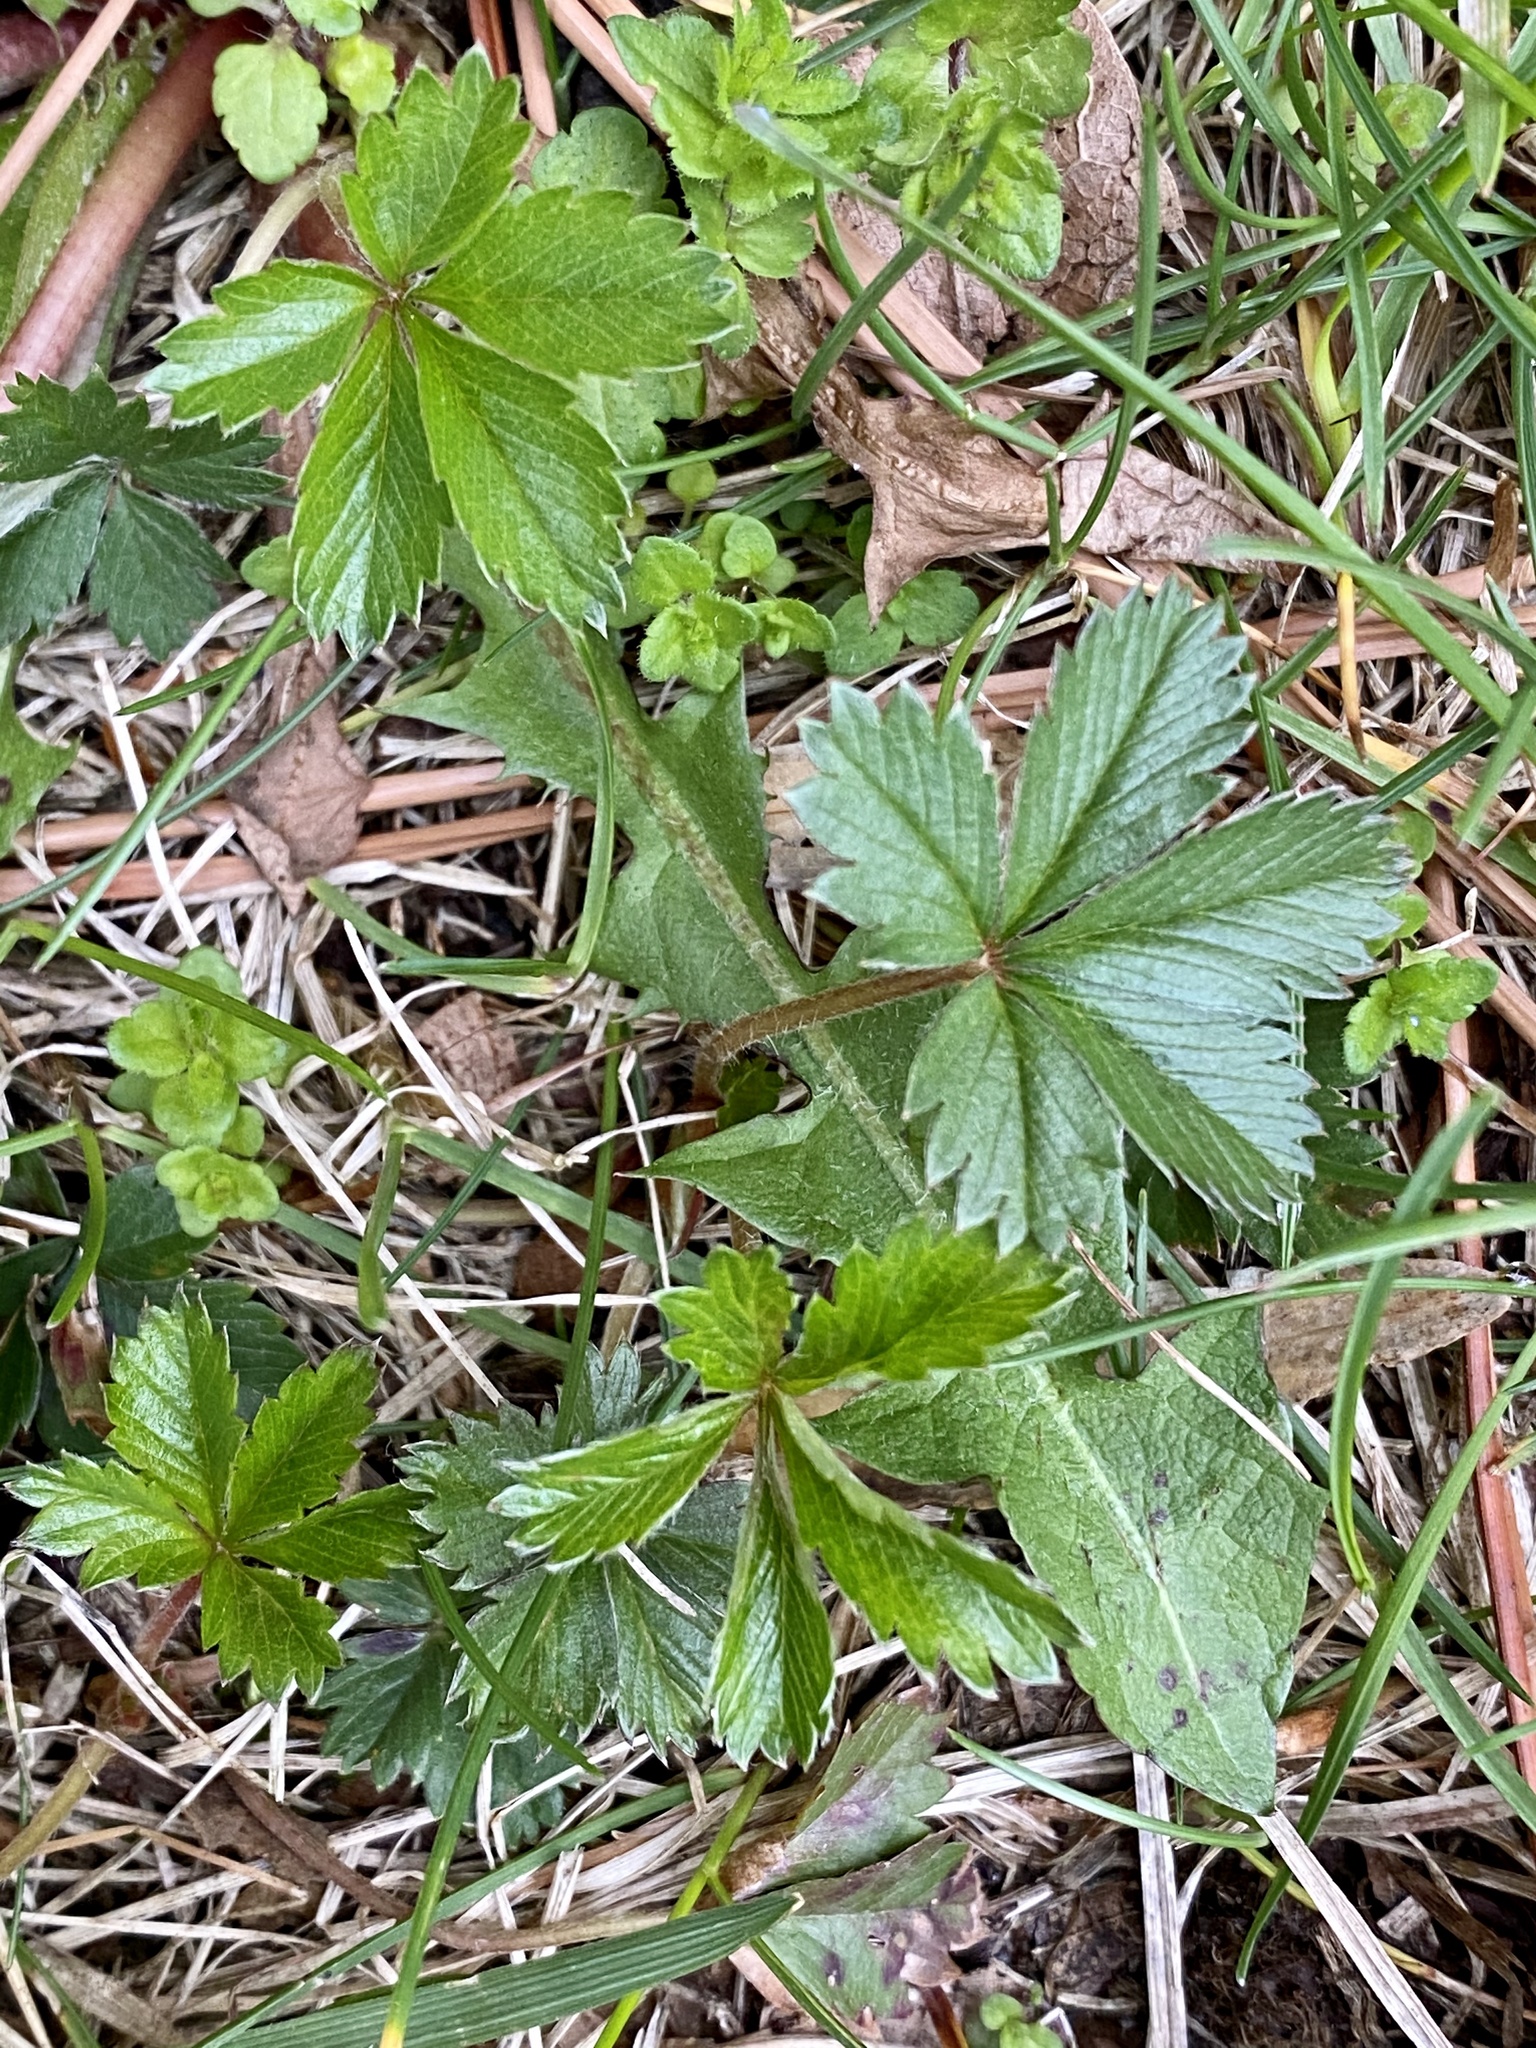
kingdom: Plantae
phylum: Tracheophyta
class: Magnoliopsida
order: Rosales
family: Rosaceae
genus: Potentilla
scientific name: Potentilla canadensis
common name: Canada cinquefoil
